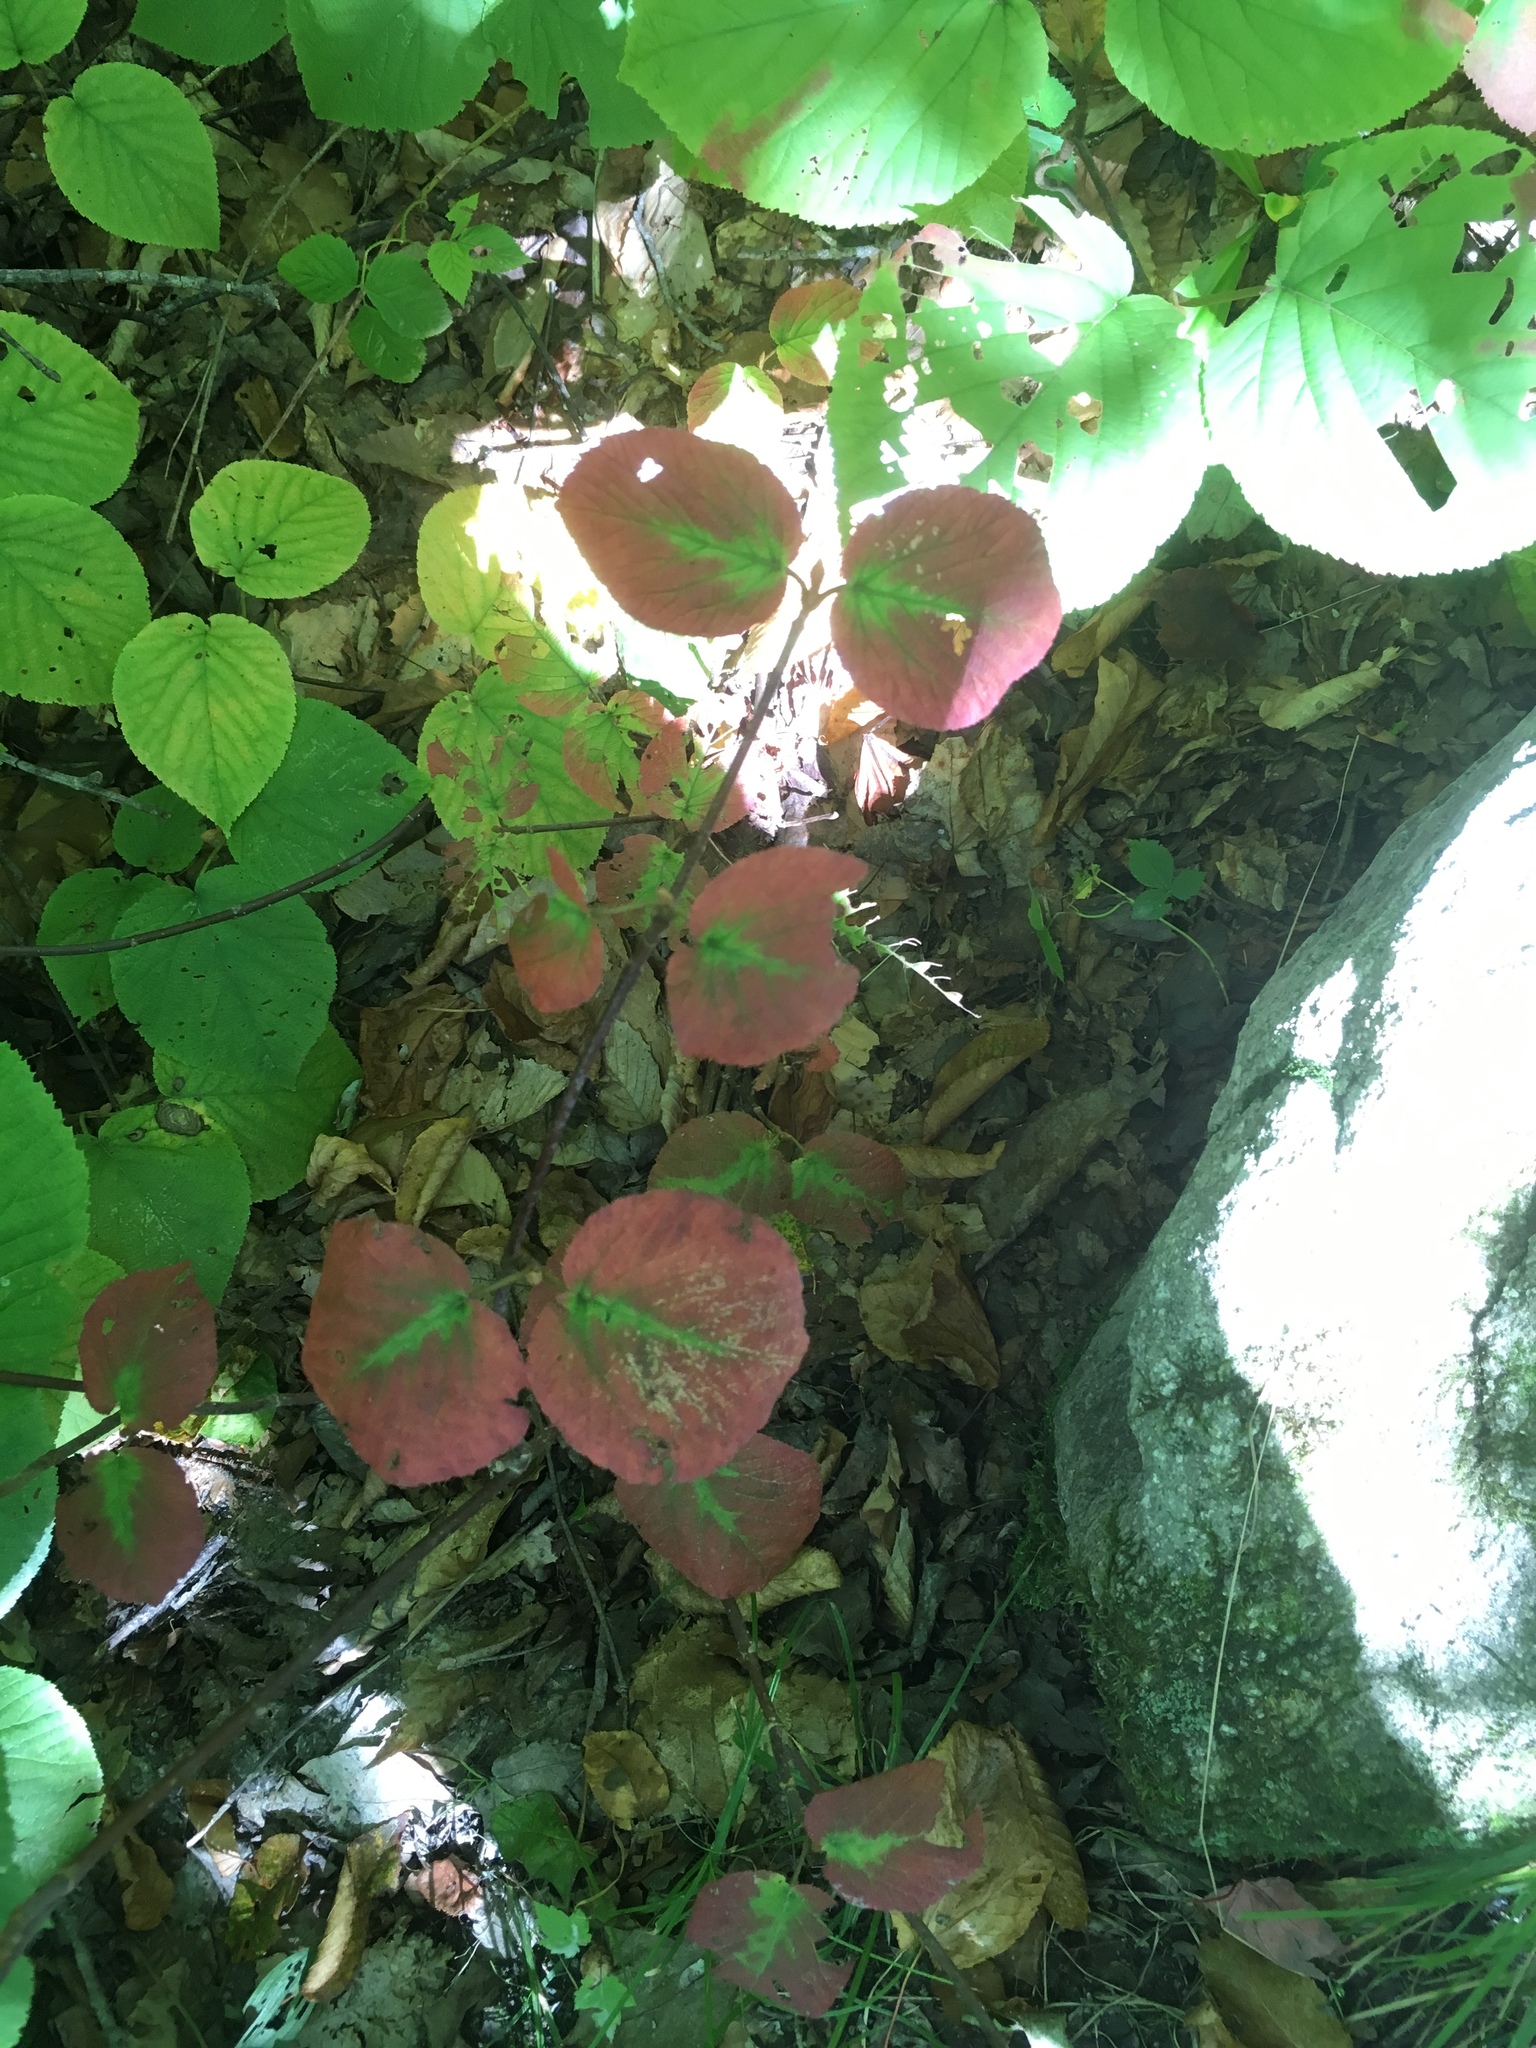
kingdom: Plantae
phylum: Tracheophyta
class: Magnoliopsida
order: Dipsacales
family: Viburnaceae
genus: Viburnum
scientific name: Viburnum lantanoides
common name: Hobblebush
